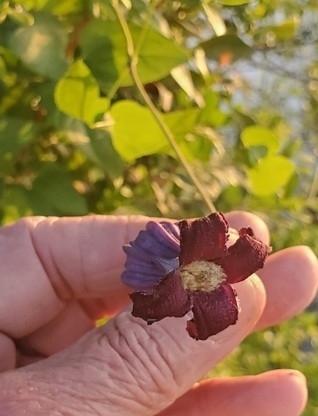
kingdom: Plantae
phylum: Tracheophyta
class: Magnoliopsida
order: Ranunculales
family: Ranunculaceae
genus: Clematis
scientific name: Clematis pitcheri
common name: Bellflower clematis
